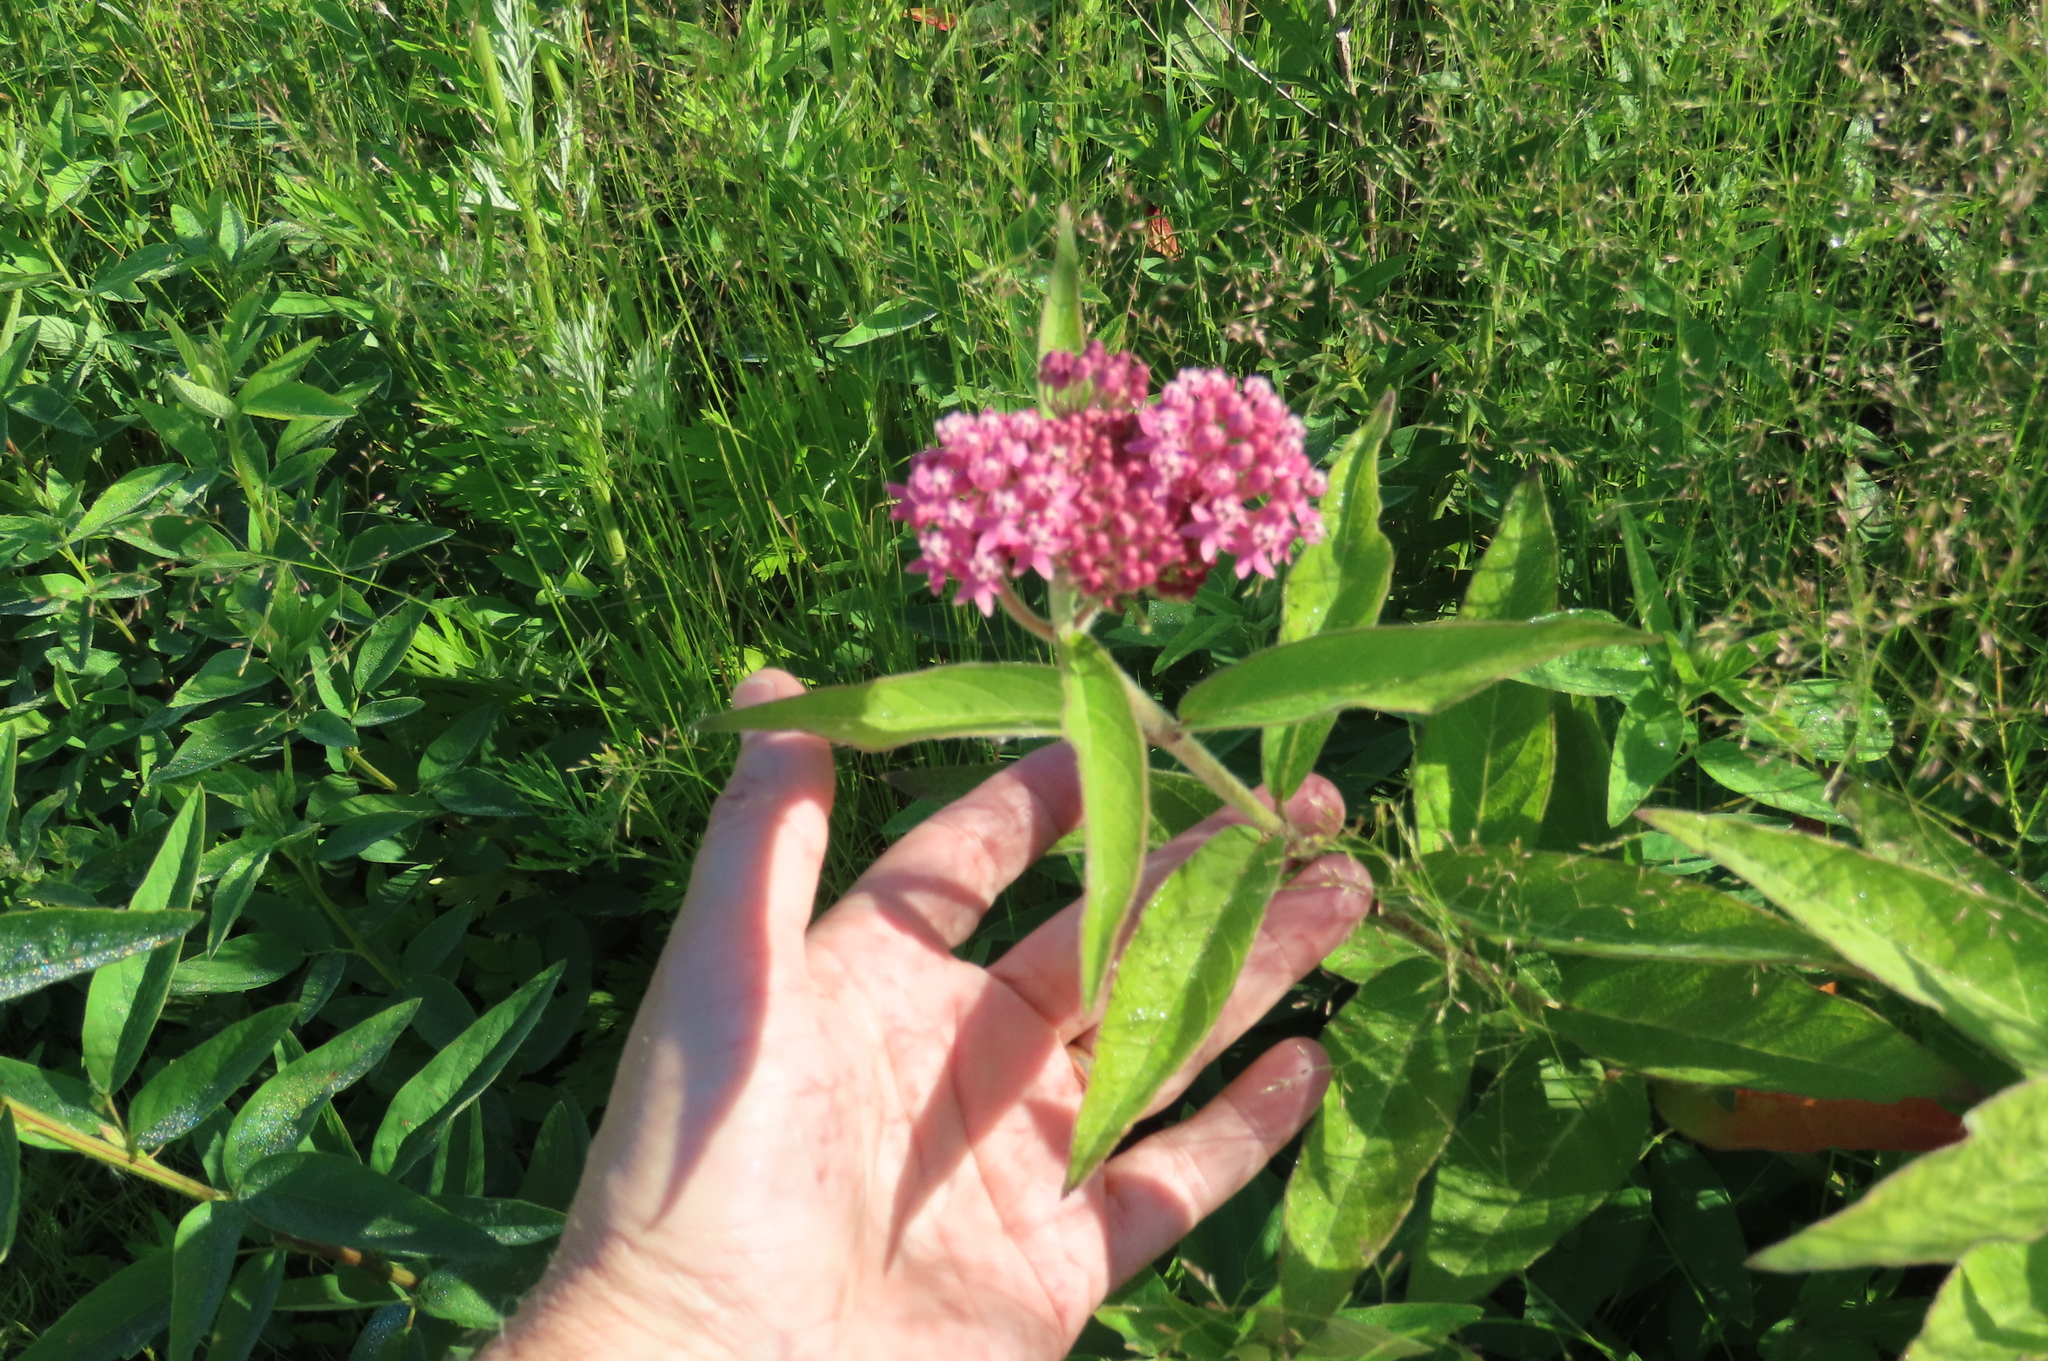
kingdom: Plantae
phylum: Tracheophyta
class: Magnoliopsida
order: Gentianales
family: Apocynaceae
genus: Asclepias
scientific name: Asclepias incarnata
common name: Swamp milkweed
